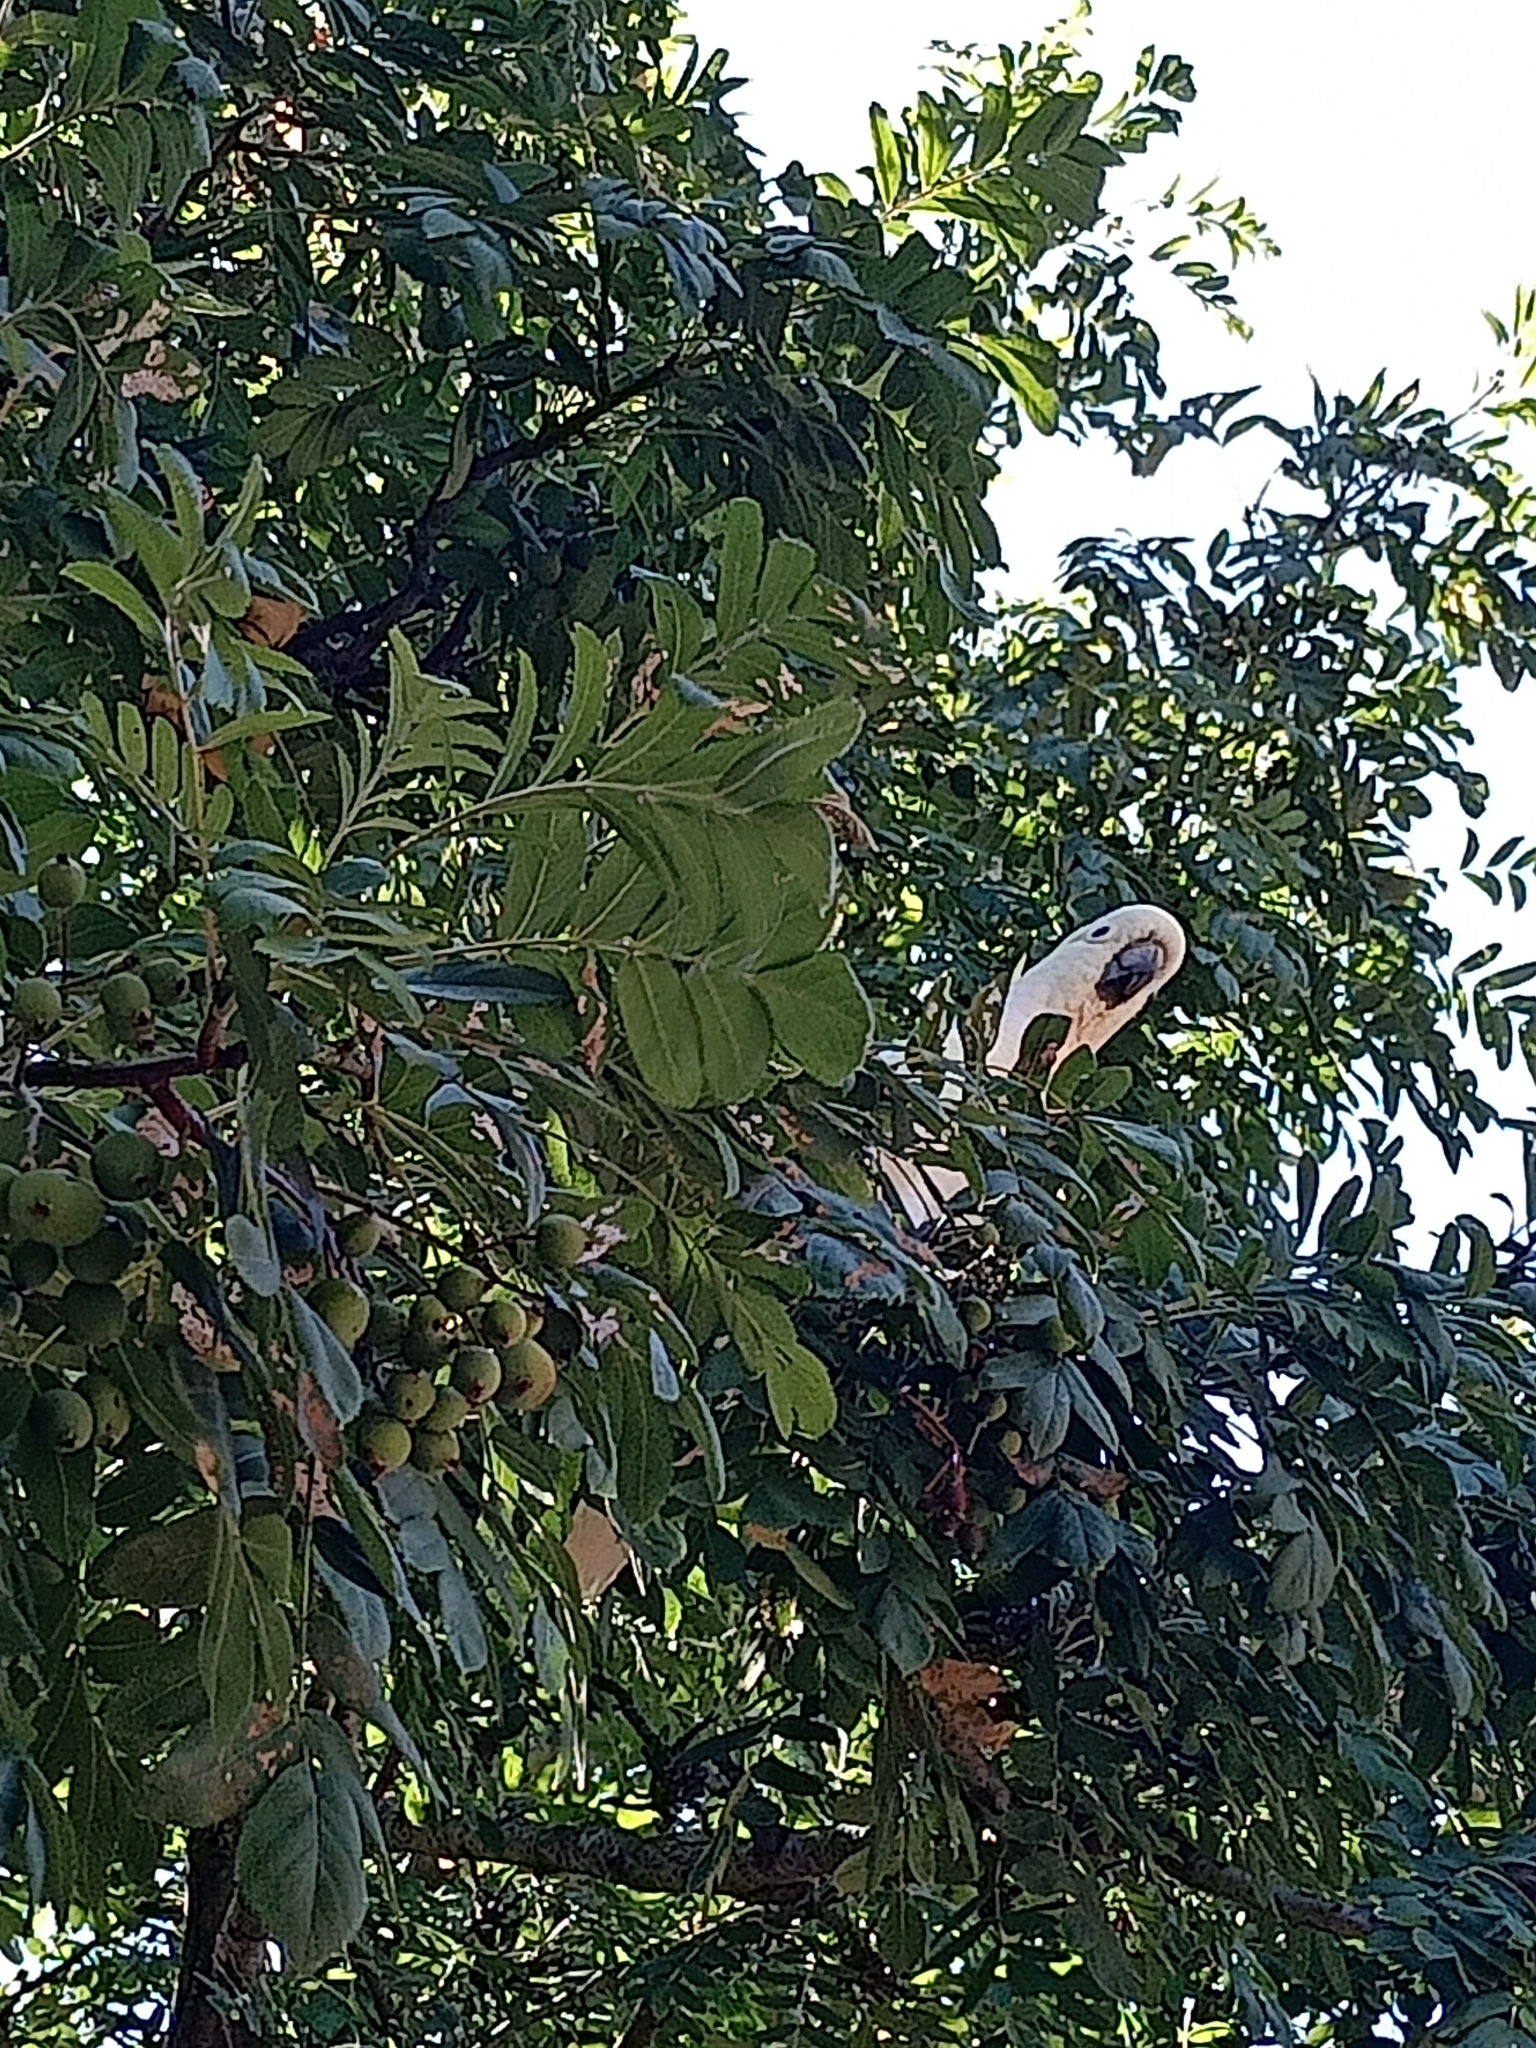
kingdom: Animalia
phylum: Chordata
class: Aves
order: Psittaciformes
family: Psittacidae
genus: Cacatua
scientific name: Cacatua galerita
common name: Sulphur-crested cockatoo
